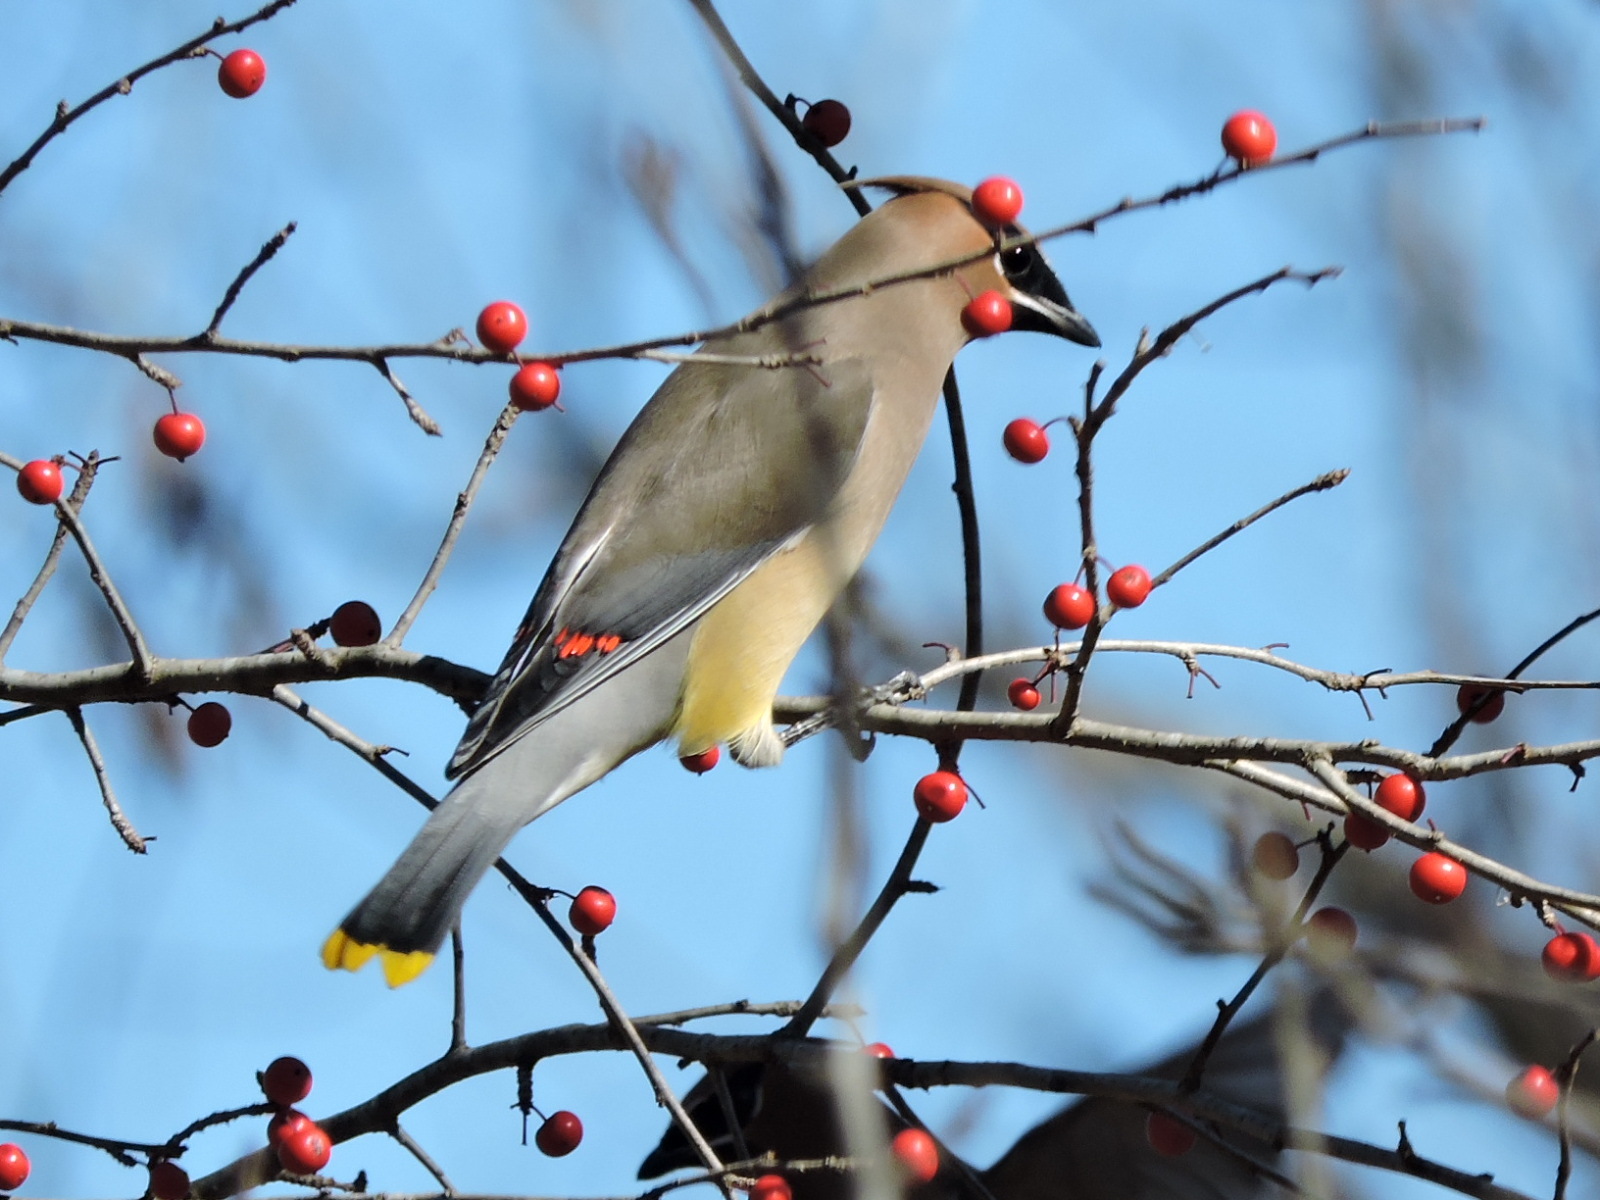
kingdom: Animalia
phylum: Chordata
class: Aves
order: Passeriformes
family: Bombycillidae
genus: Bombycilla
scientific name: Bombycilla cedrorum
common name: Cedar waxwing
